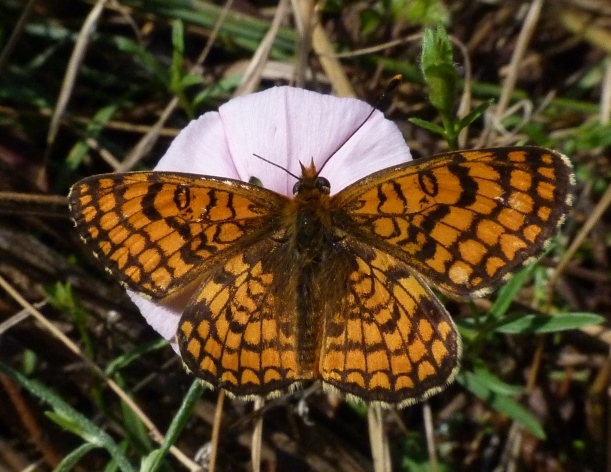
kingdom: Animalia
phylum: Arthropoda
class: Insecta
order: Lepidoptera
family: Nymphalidae
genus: Melitaea
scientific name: Melitaea deione
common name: Provençal fritillary
